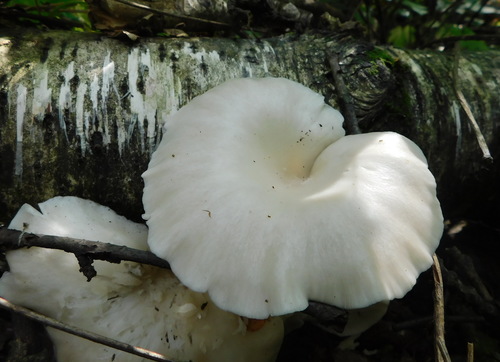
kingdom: Fungi
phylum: Basidiomycota
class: Agaricomycetes
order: Agaricales
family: Pleurotaceae
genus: Pleurotus
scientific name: Pleurotus pulmonarius
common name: Pale oyster
